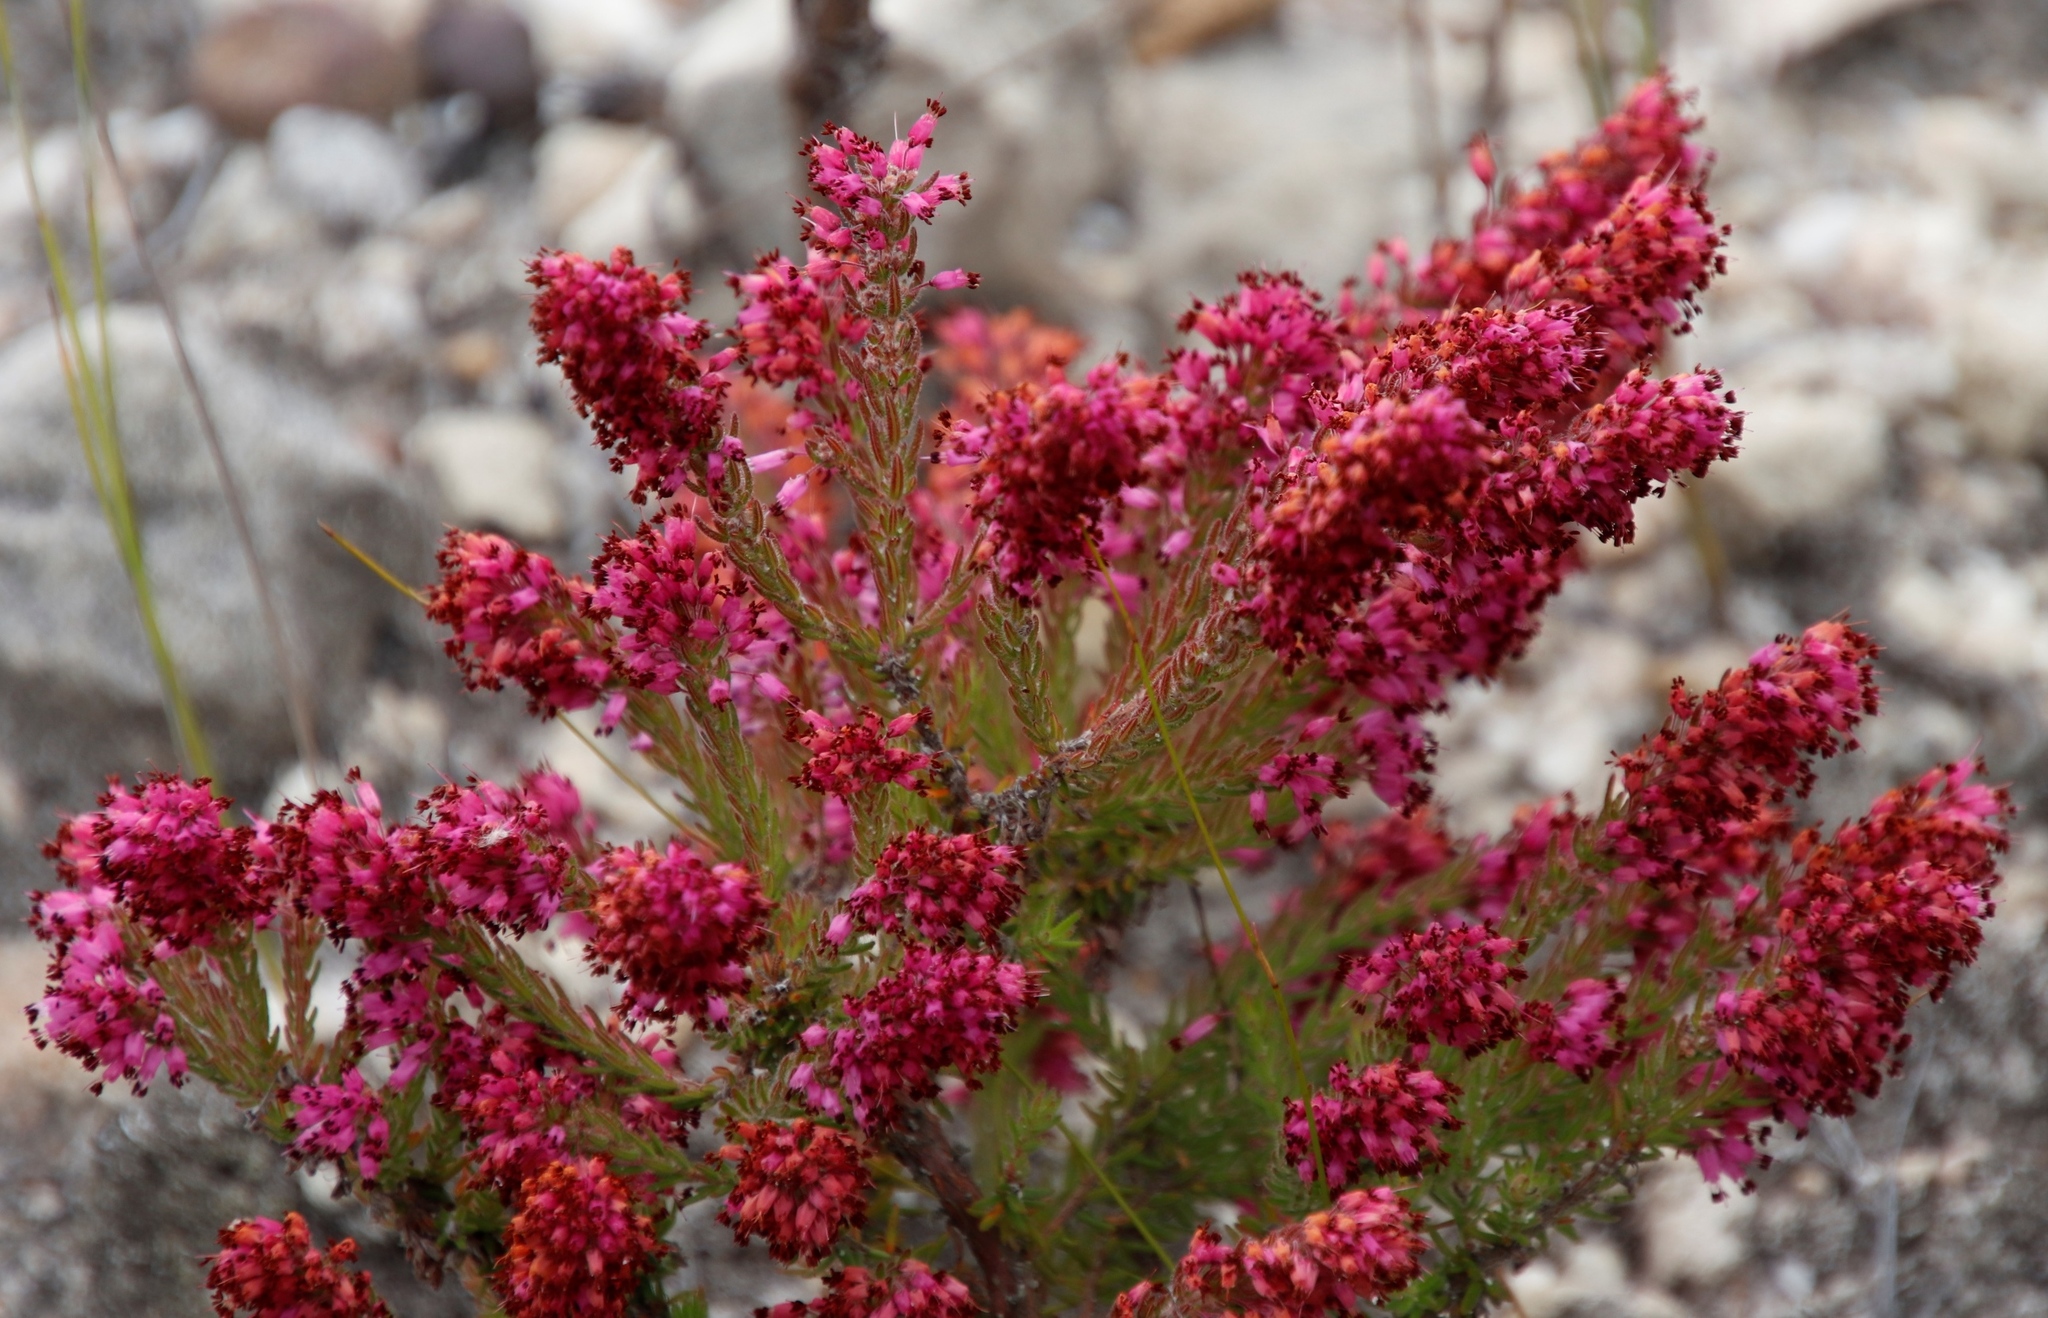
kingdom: Plantae
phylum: Tracheophyta
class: Magnoliopsida
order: Ericales
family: Ericaceae
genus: Erica
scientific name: Erica nudiflora
